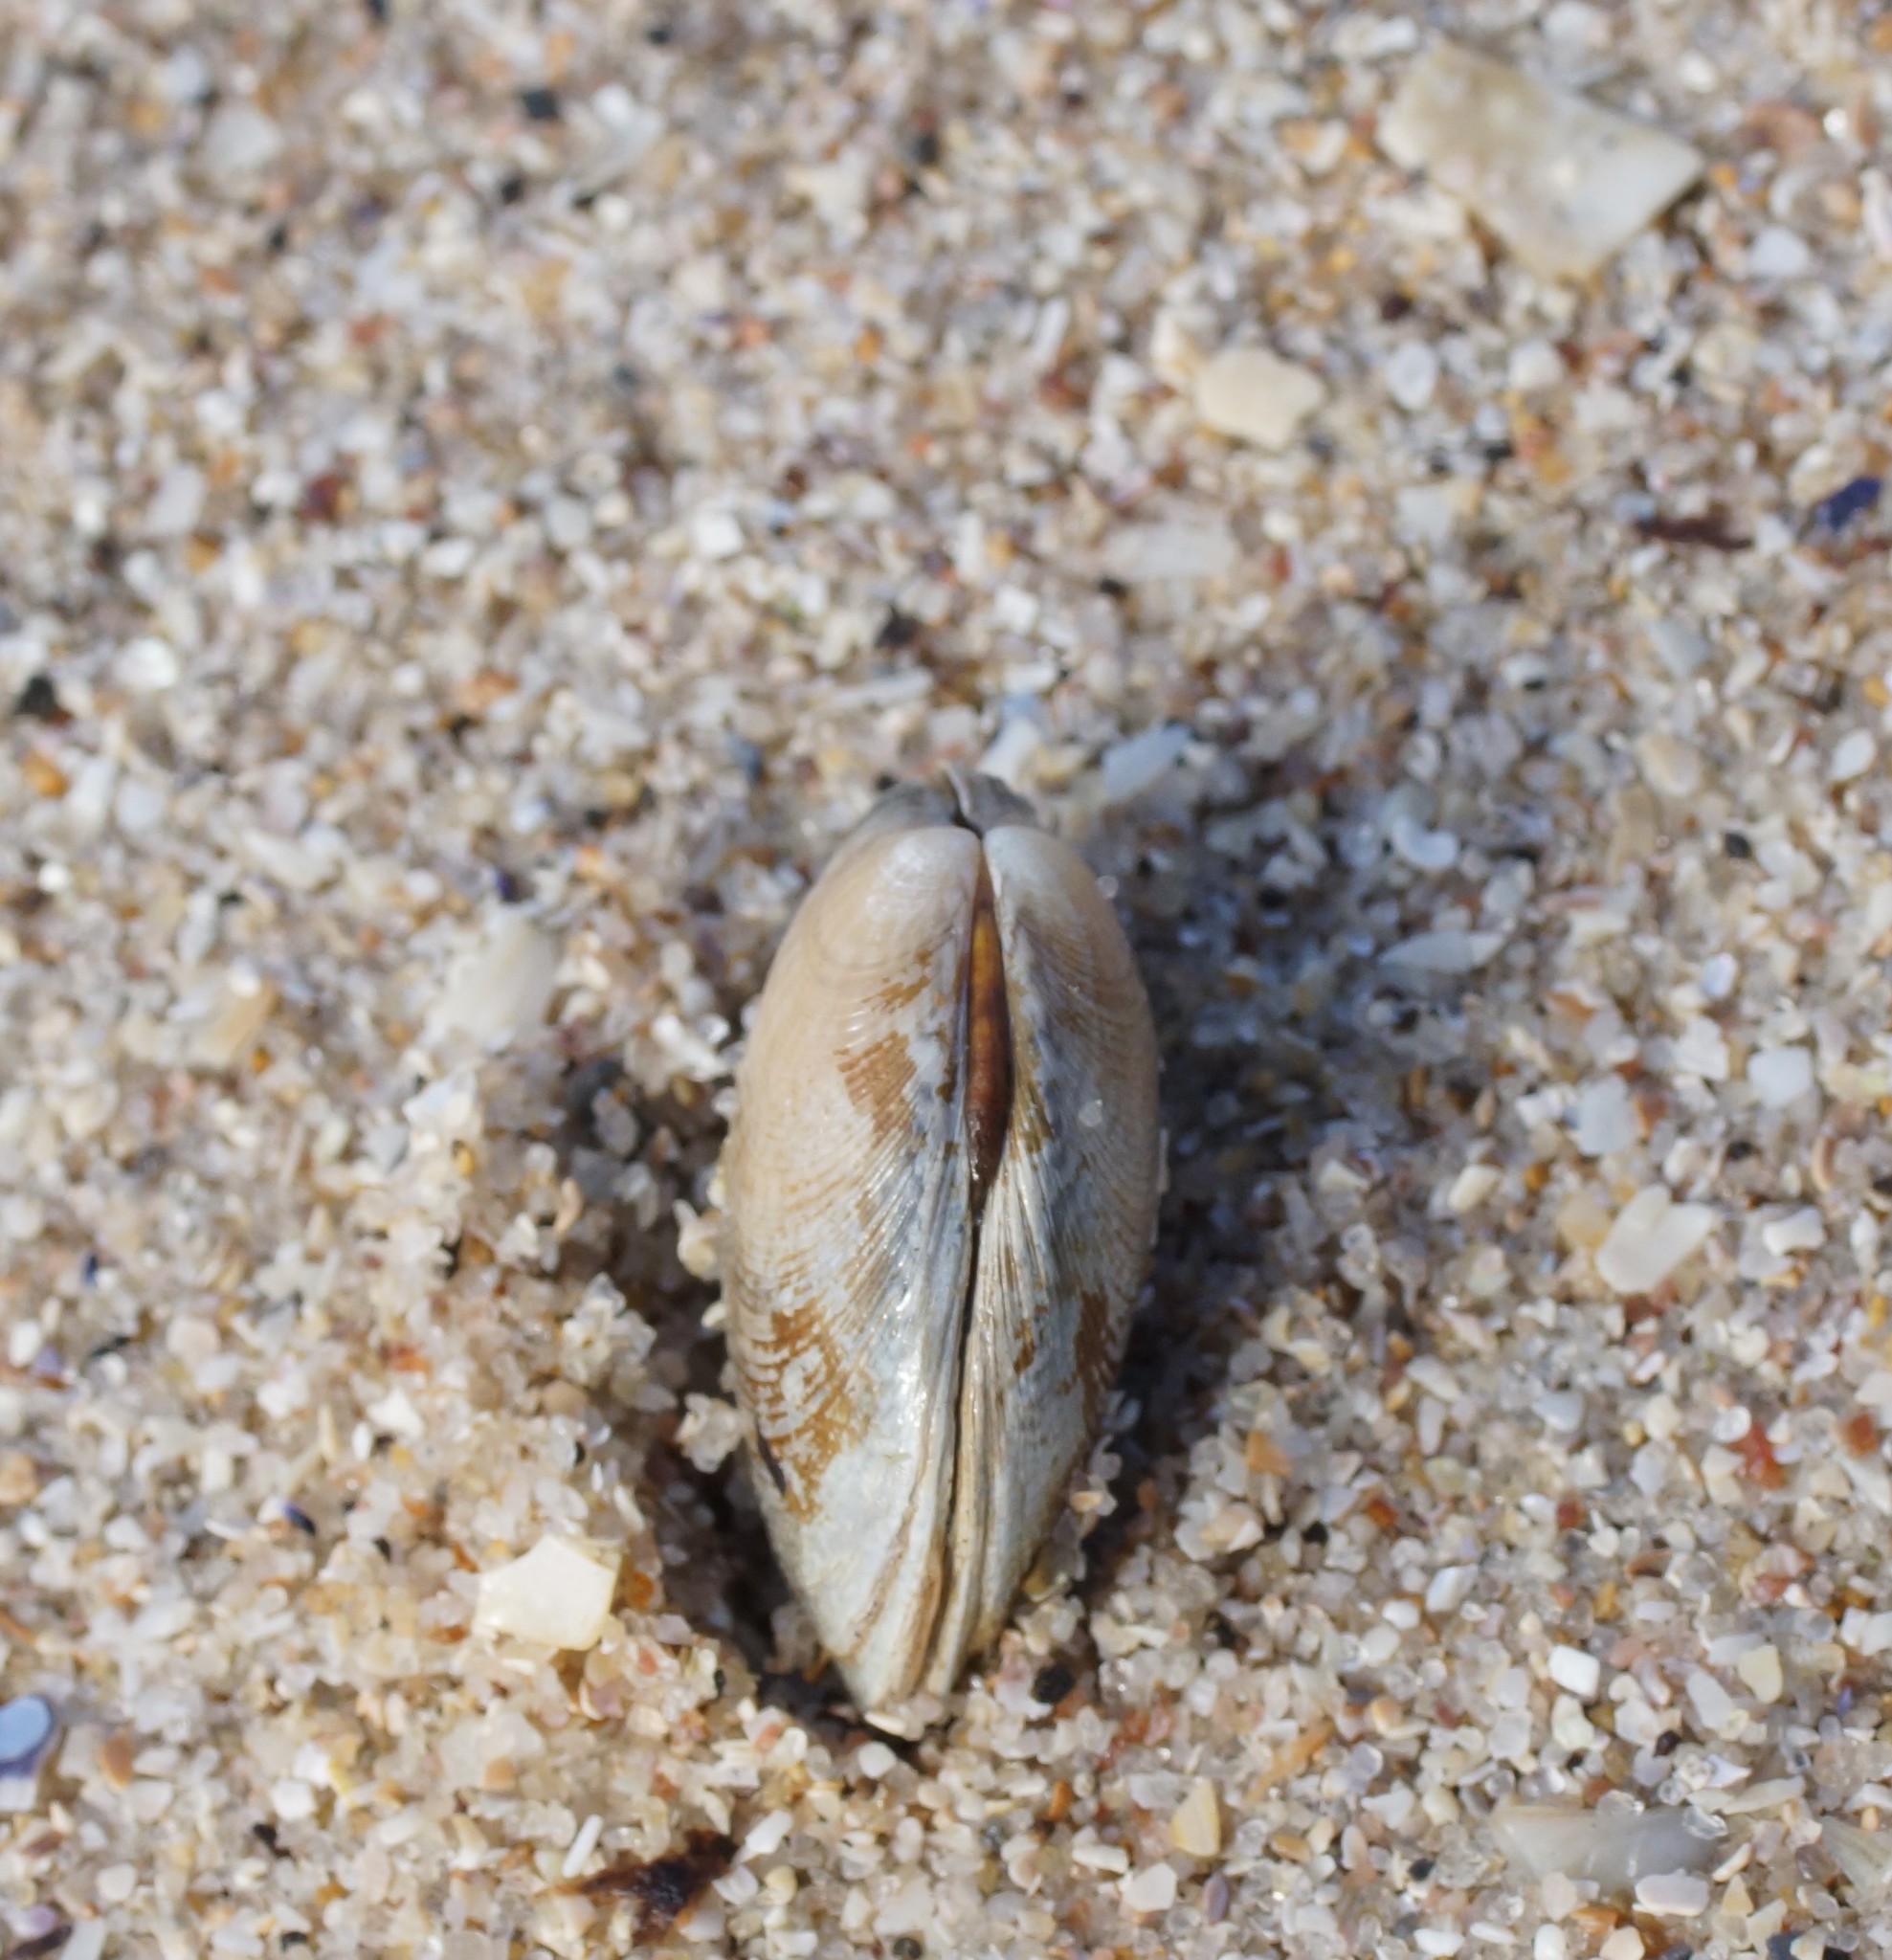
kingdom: Animalia
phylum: Mollusca
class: Bivalvia
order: Venerida
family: Veneridae
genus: Katelysia
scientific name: Katelysia rhytiphora
